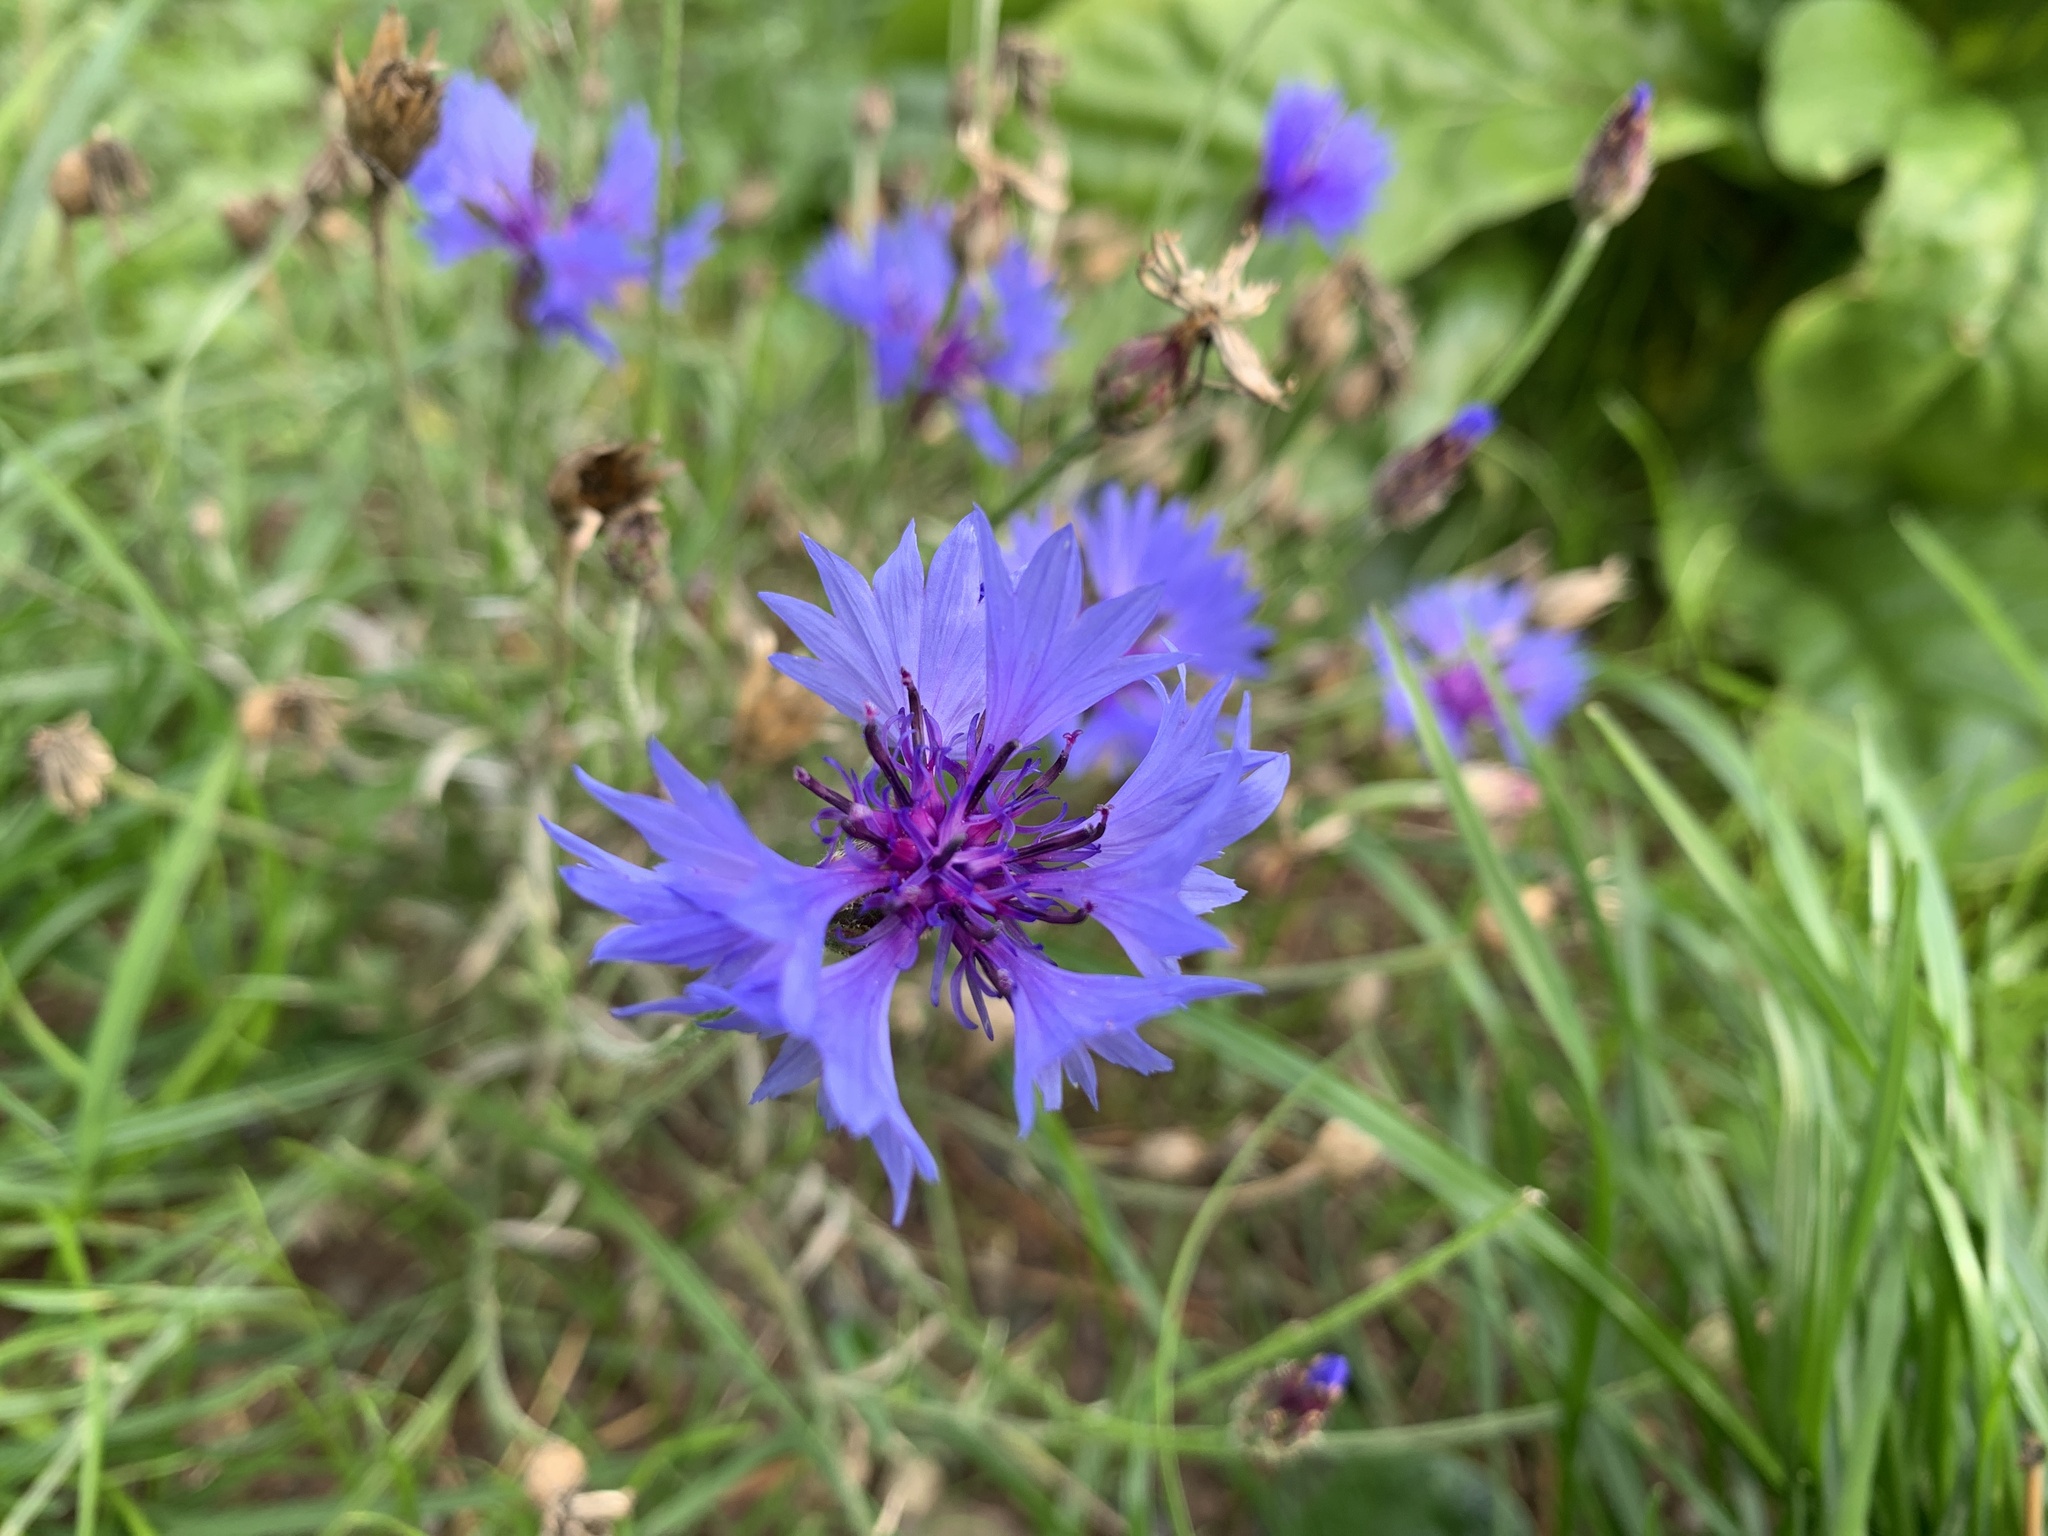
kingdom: Plantae
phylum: Tracheophyta
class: Magnoliopsida
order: Asterales
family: Asteraceae
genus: Centaurea
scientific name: Centaurea cyanus
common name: Cornflower
